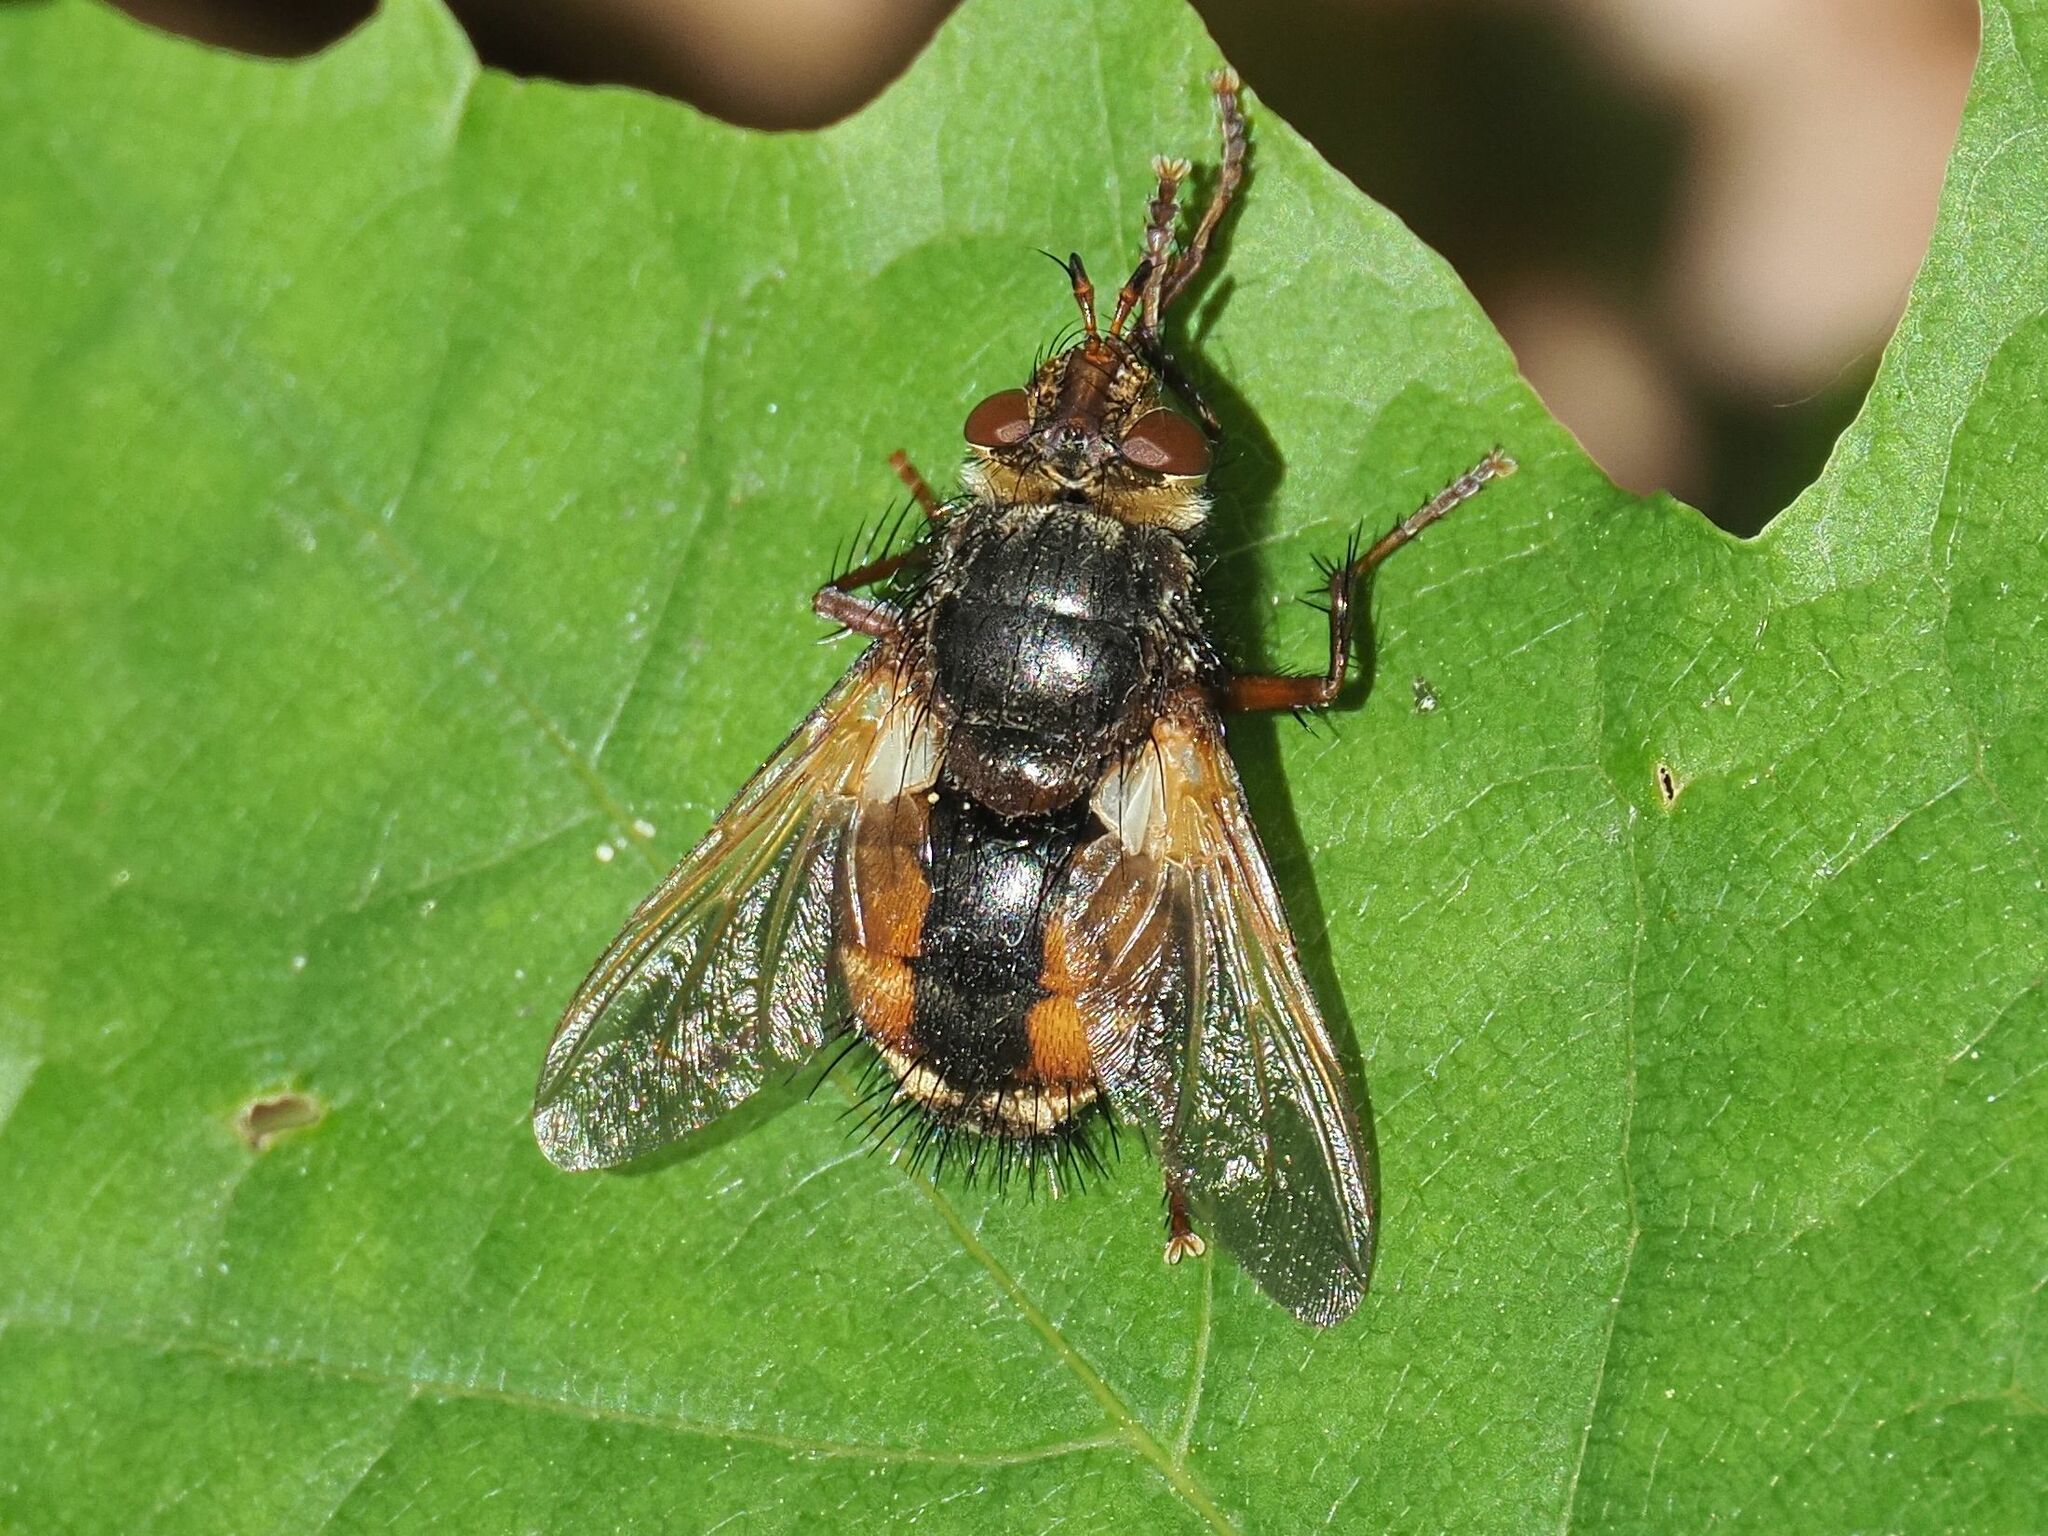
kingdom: Animalia
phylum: Arthropoda
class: Insecta
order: Diptera
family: Tachinidae
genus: Tachina
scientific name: Tachina fera
